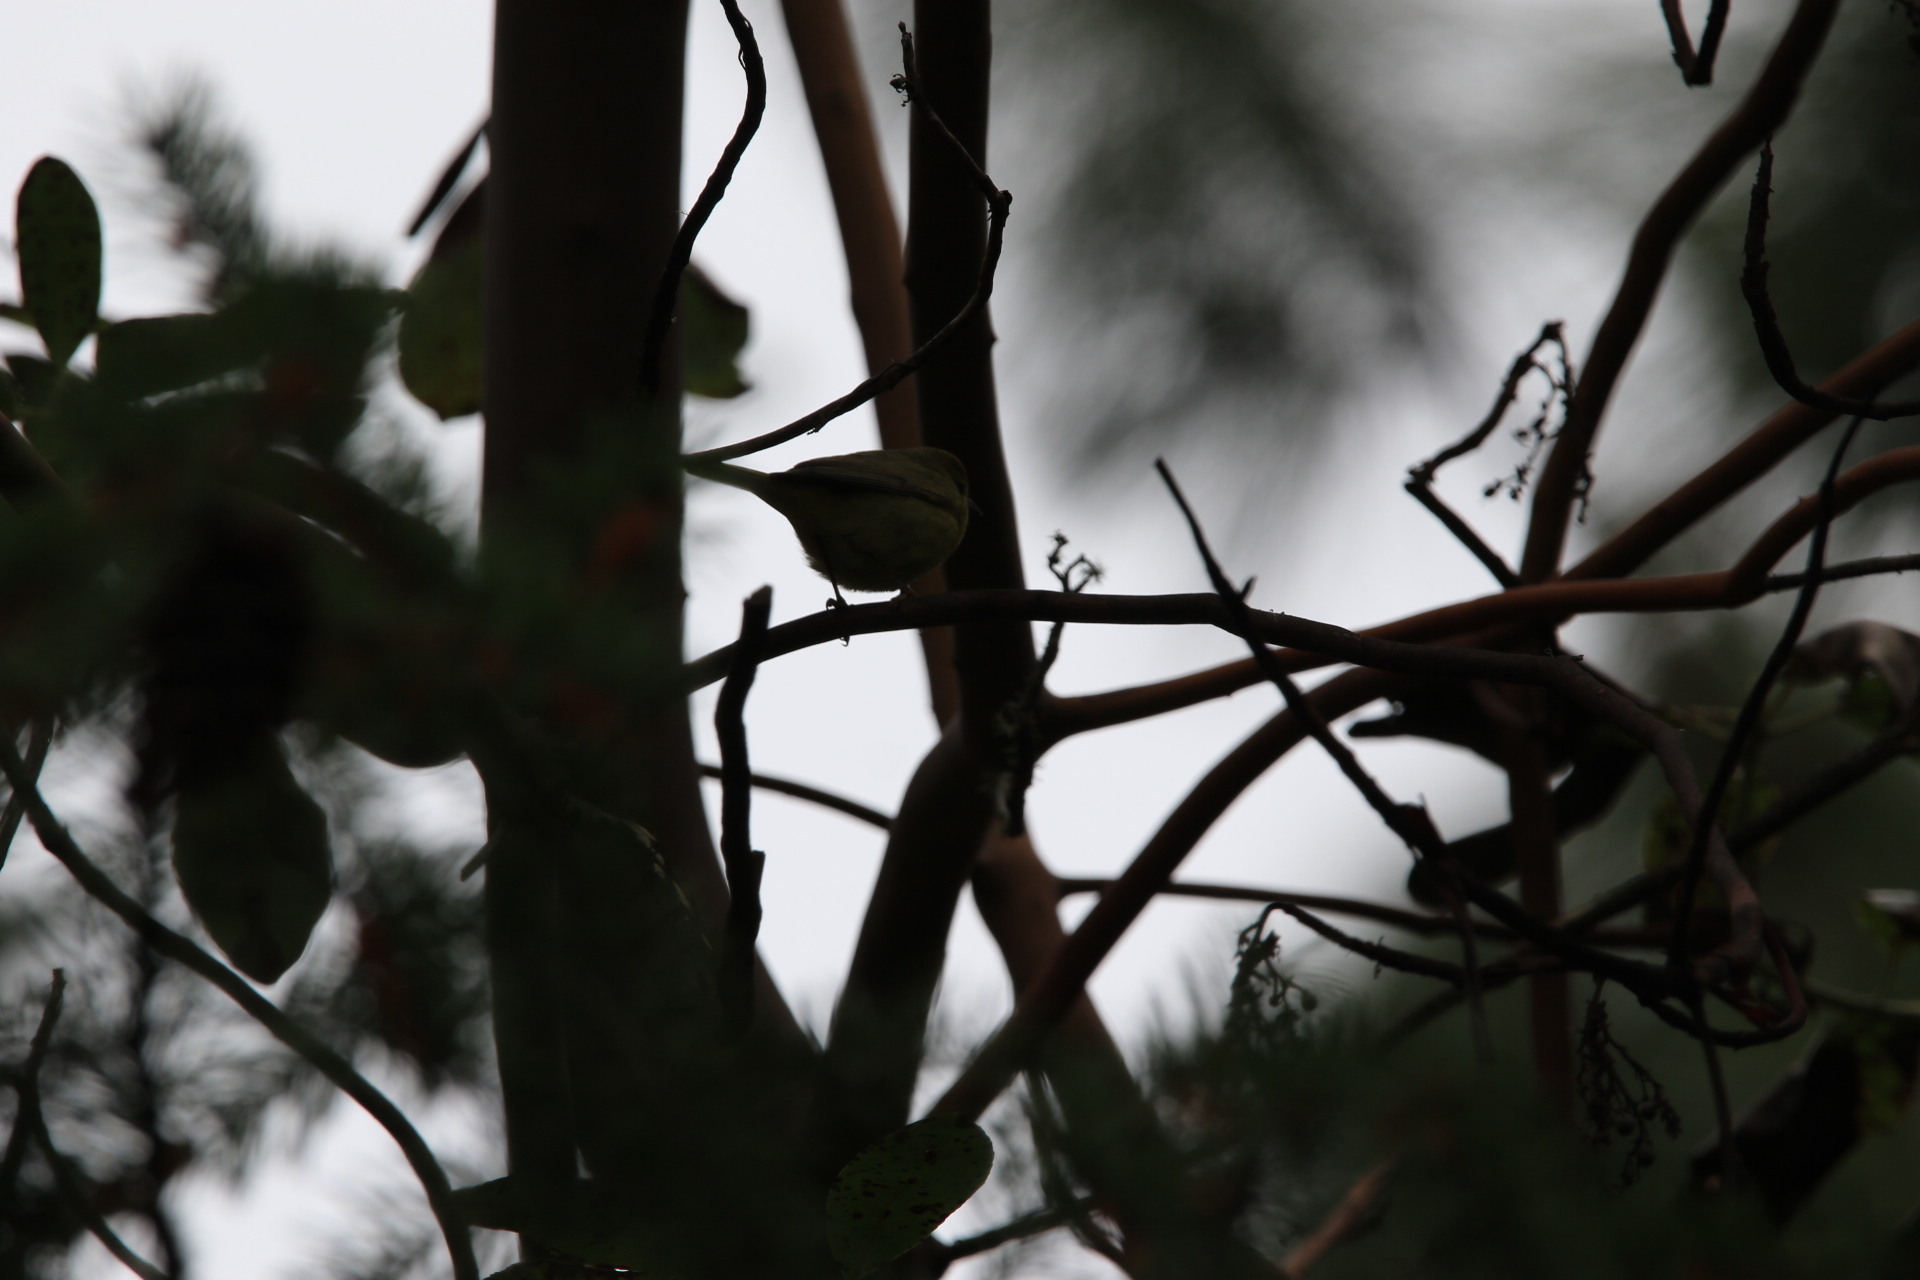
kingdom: Animalia
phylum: Chordata
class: Aves
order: Passeriformes
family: Parulidae
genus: Leiothlypis
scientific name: Leiothlypis celata
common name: Orange-crowned warbler
